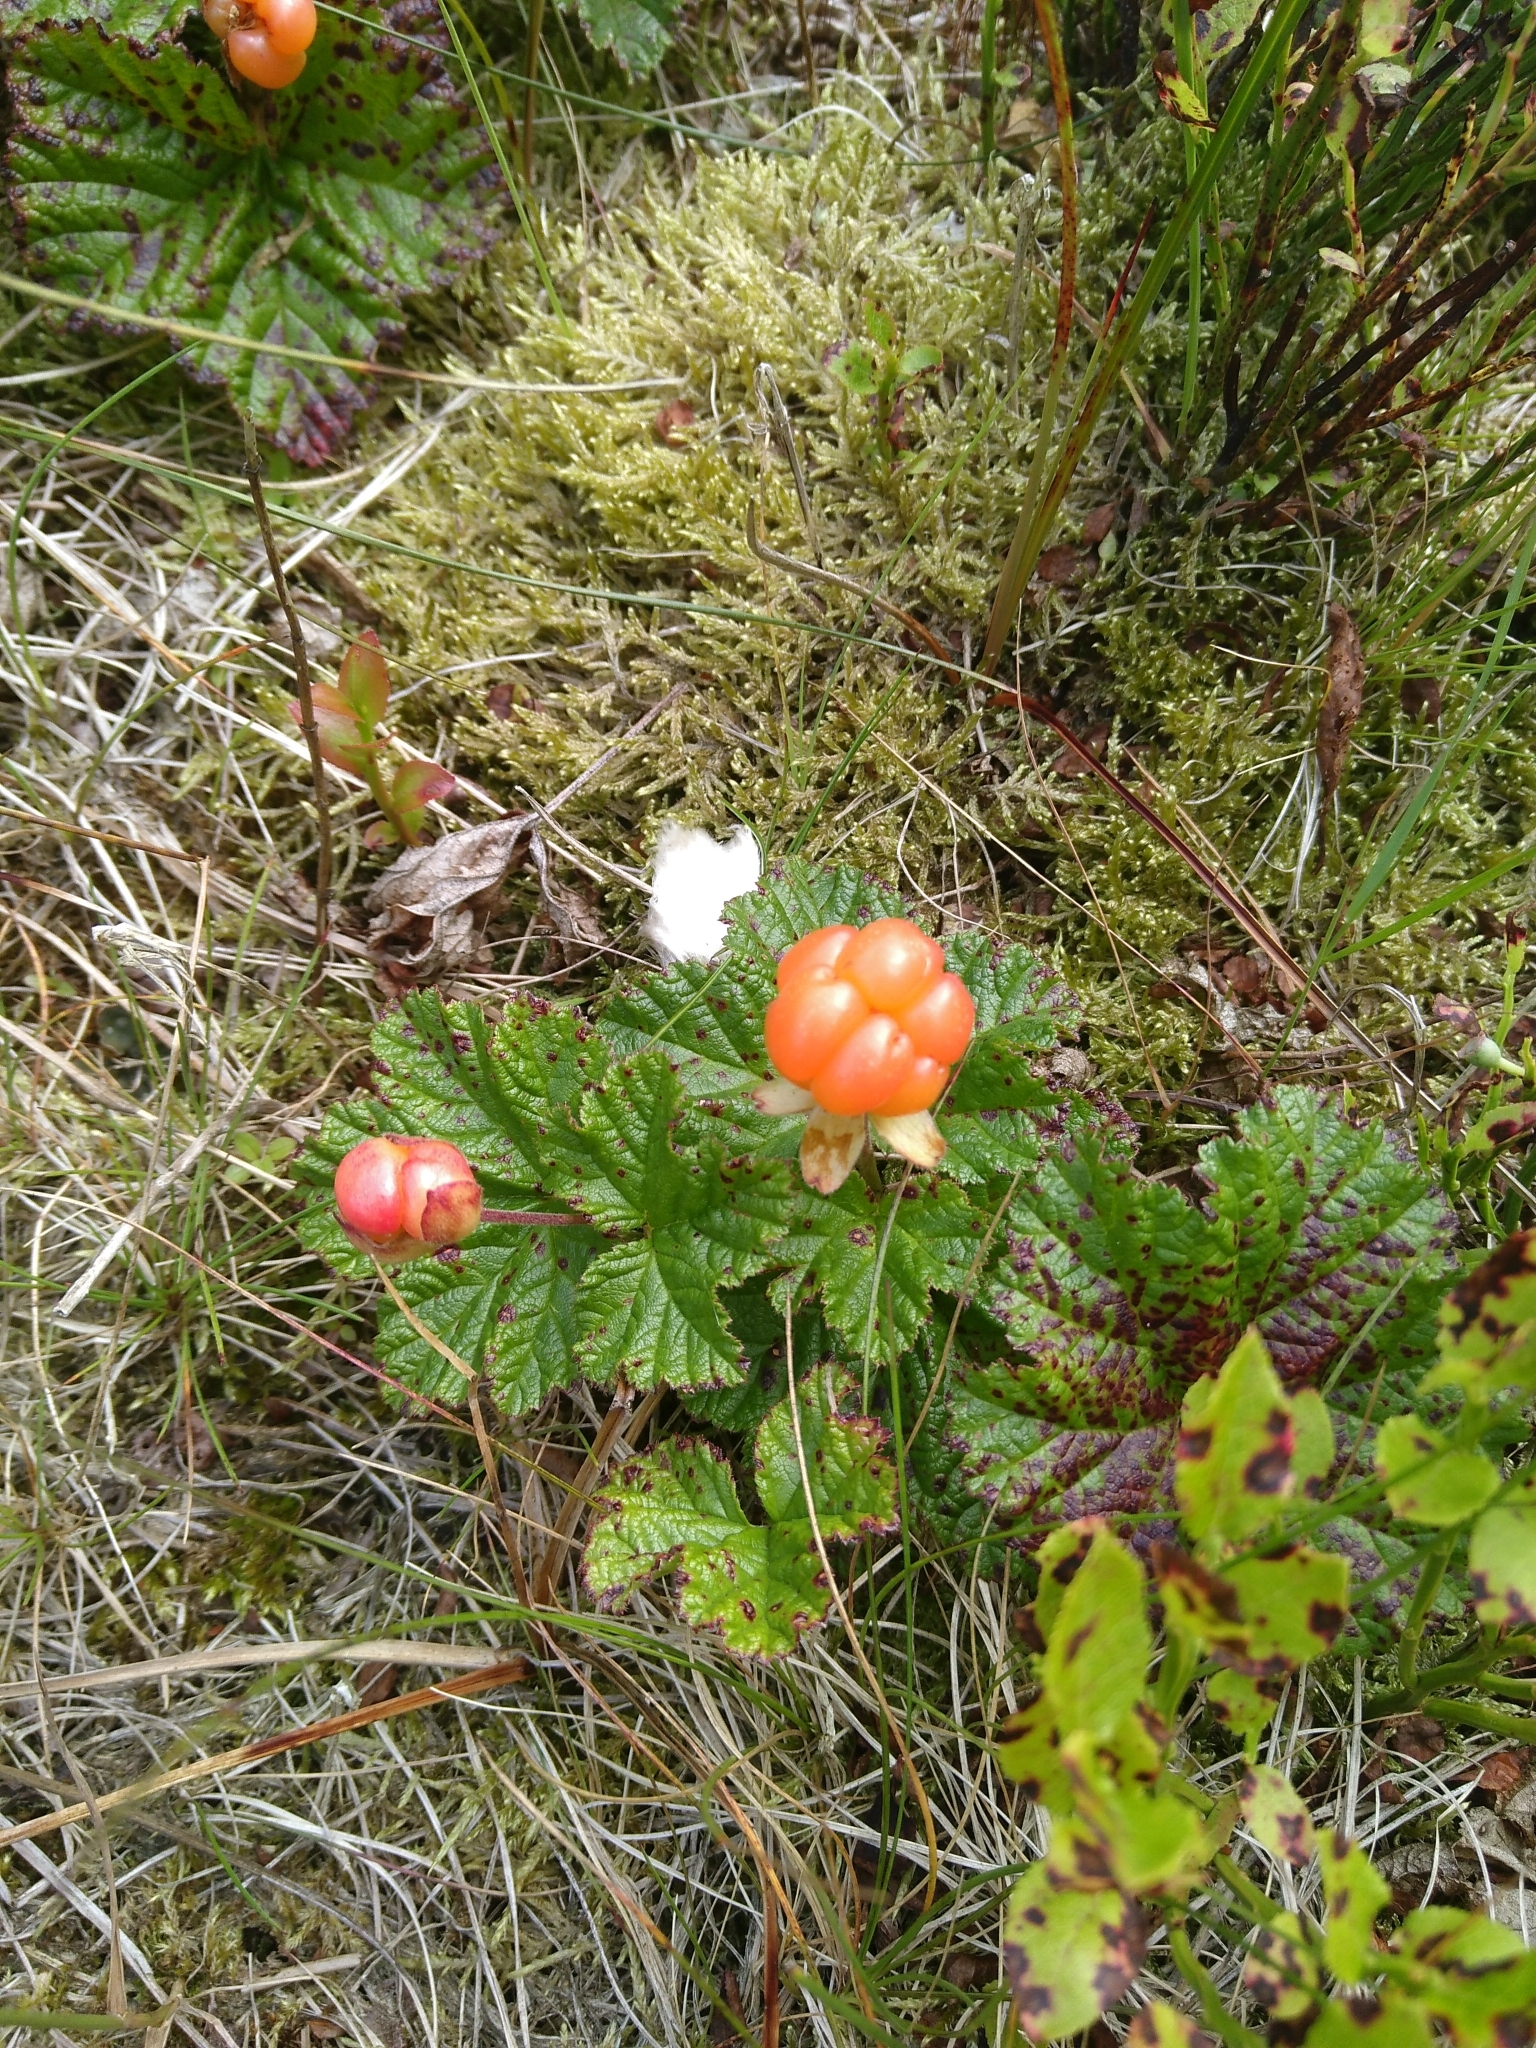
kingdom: Plantae
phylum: Tracheophyta
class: Magnoliopsida
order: Rosales
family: Rosaceae
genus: Rubus
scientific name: Rubus chamaemorus
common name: Cloudberry
